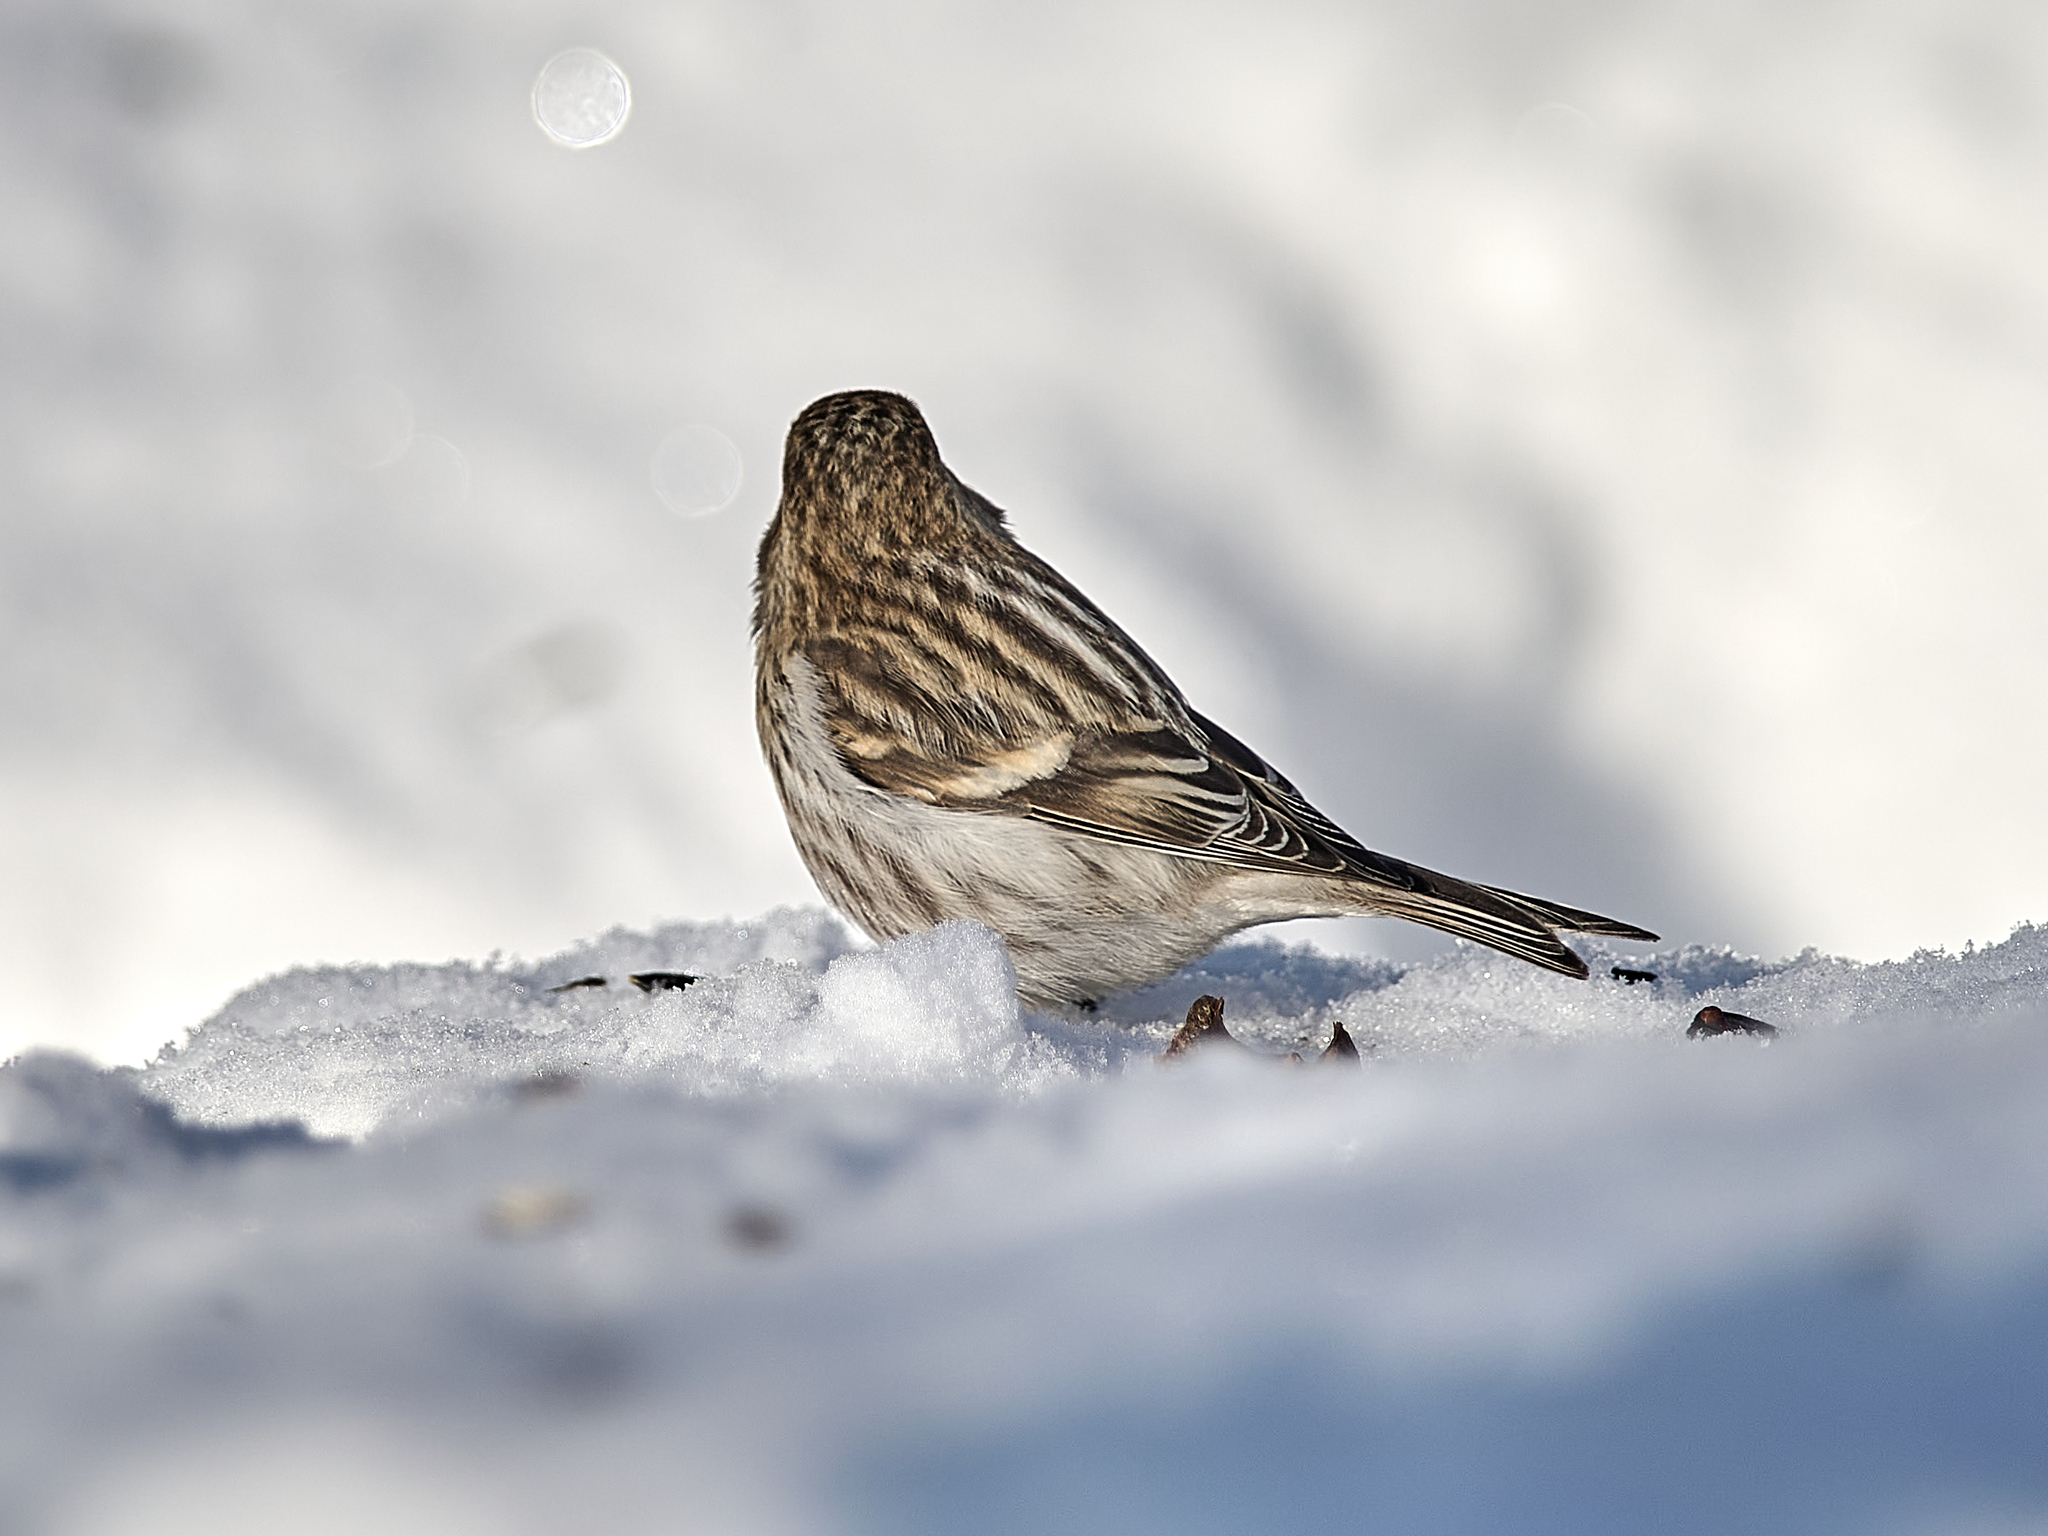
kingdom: Animalia
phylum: Chordata
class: Aves
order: Passeriformes
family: Fringillidae
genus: Acanthis
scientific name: Acanthis flammea
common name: Common redpoll
